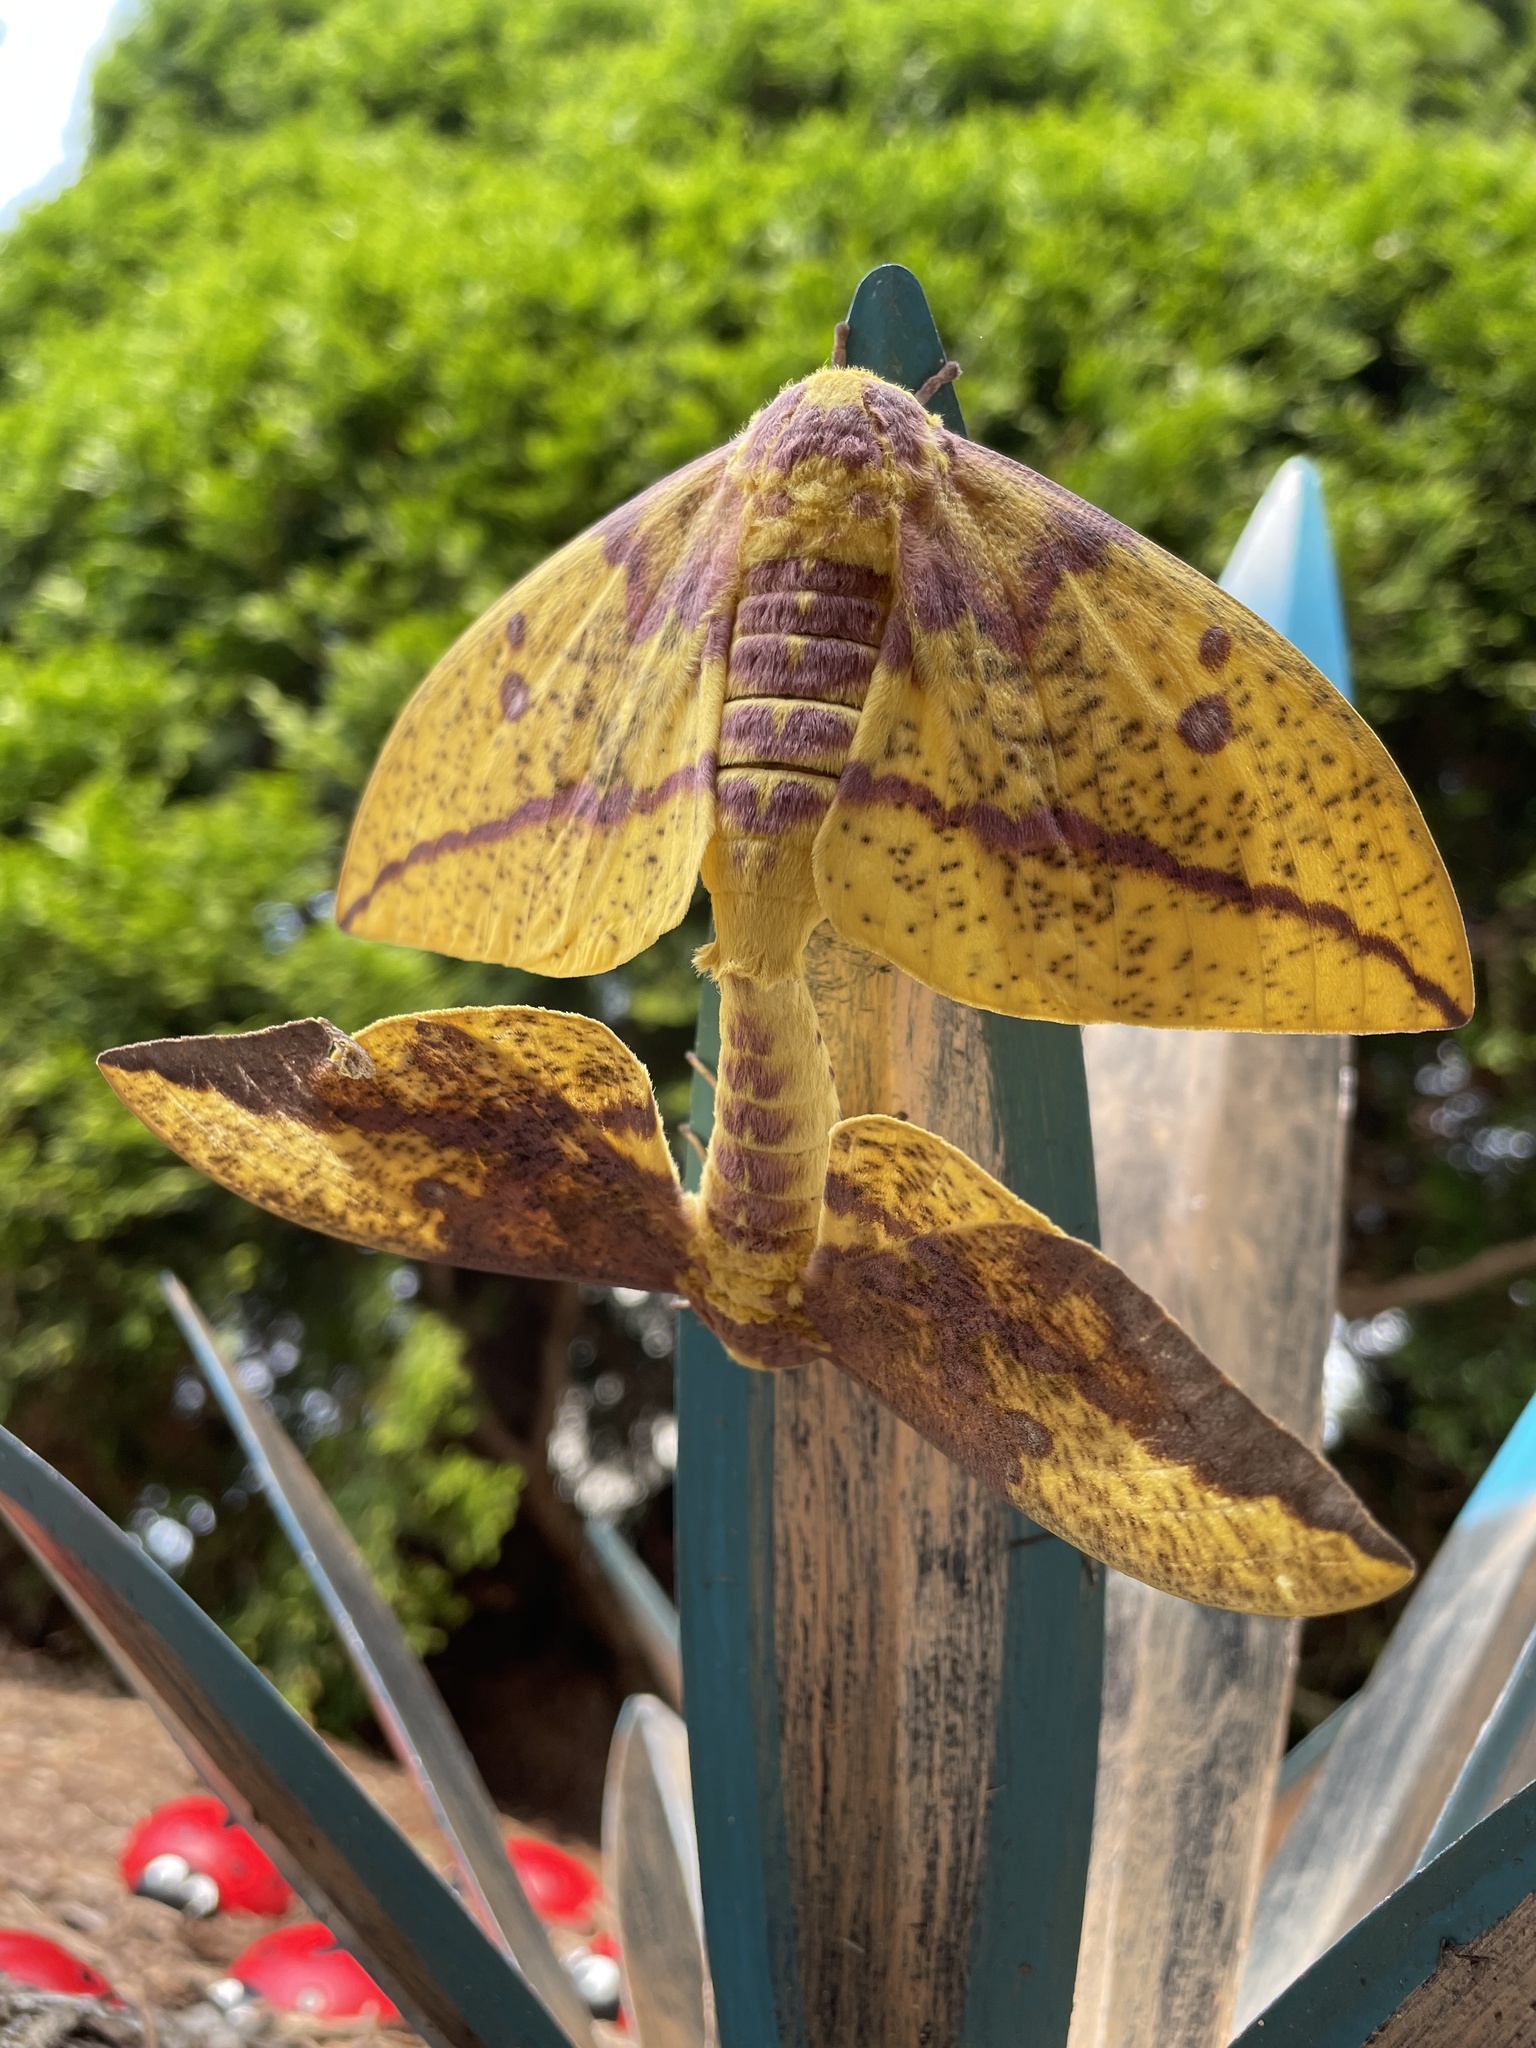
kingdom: Animalia
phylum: Arthropoda
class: Insecta
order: Lepidoptera
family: Saturniidae
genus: Eacles
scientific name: Eacles imperialis
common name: Imperial moth
